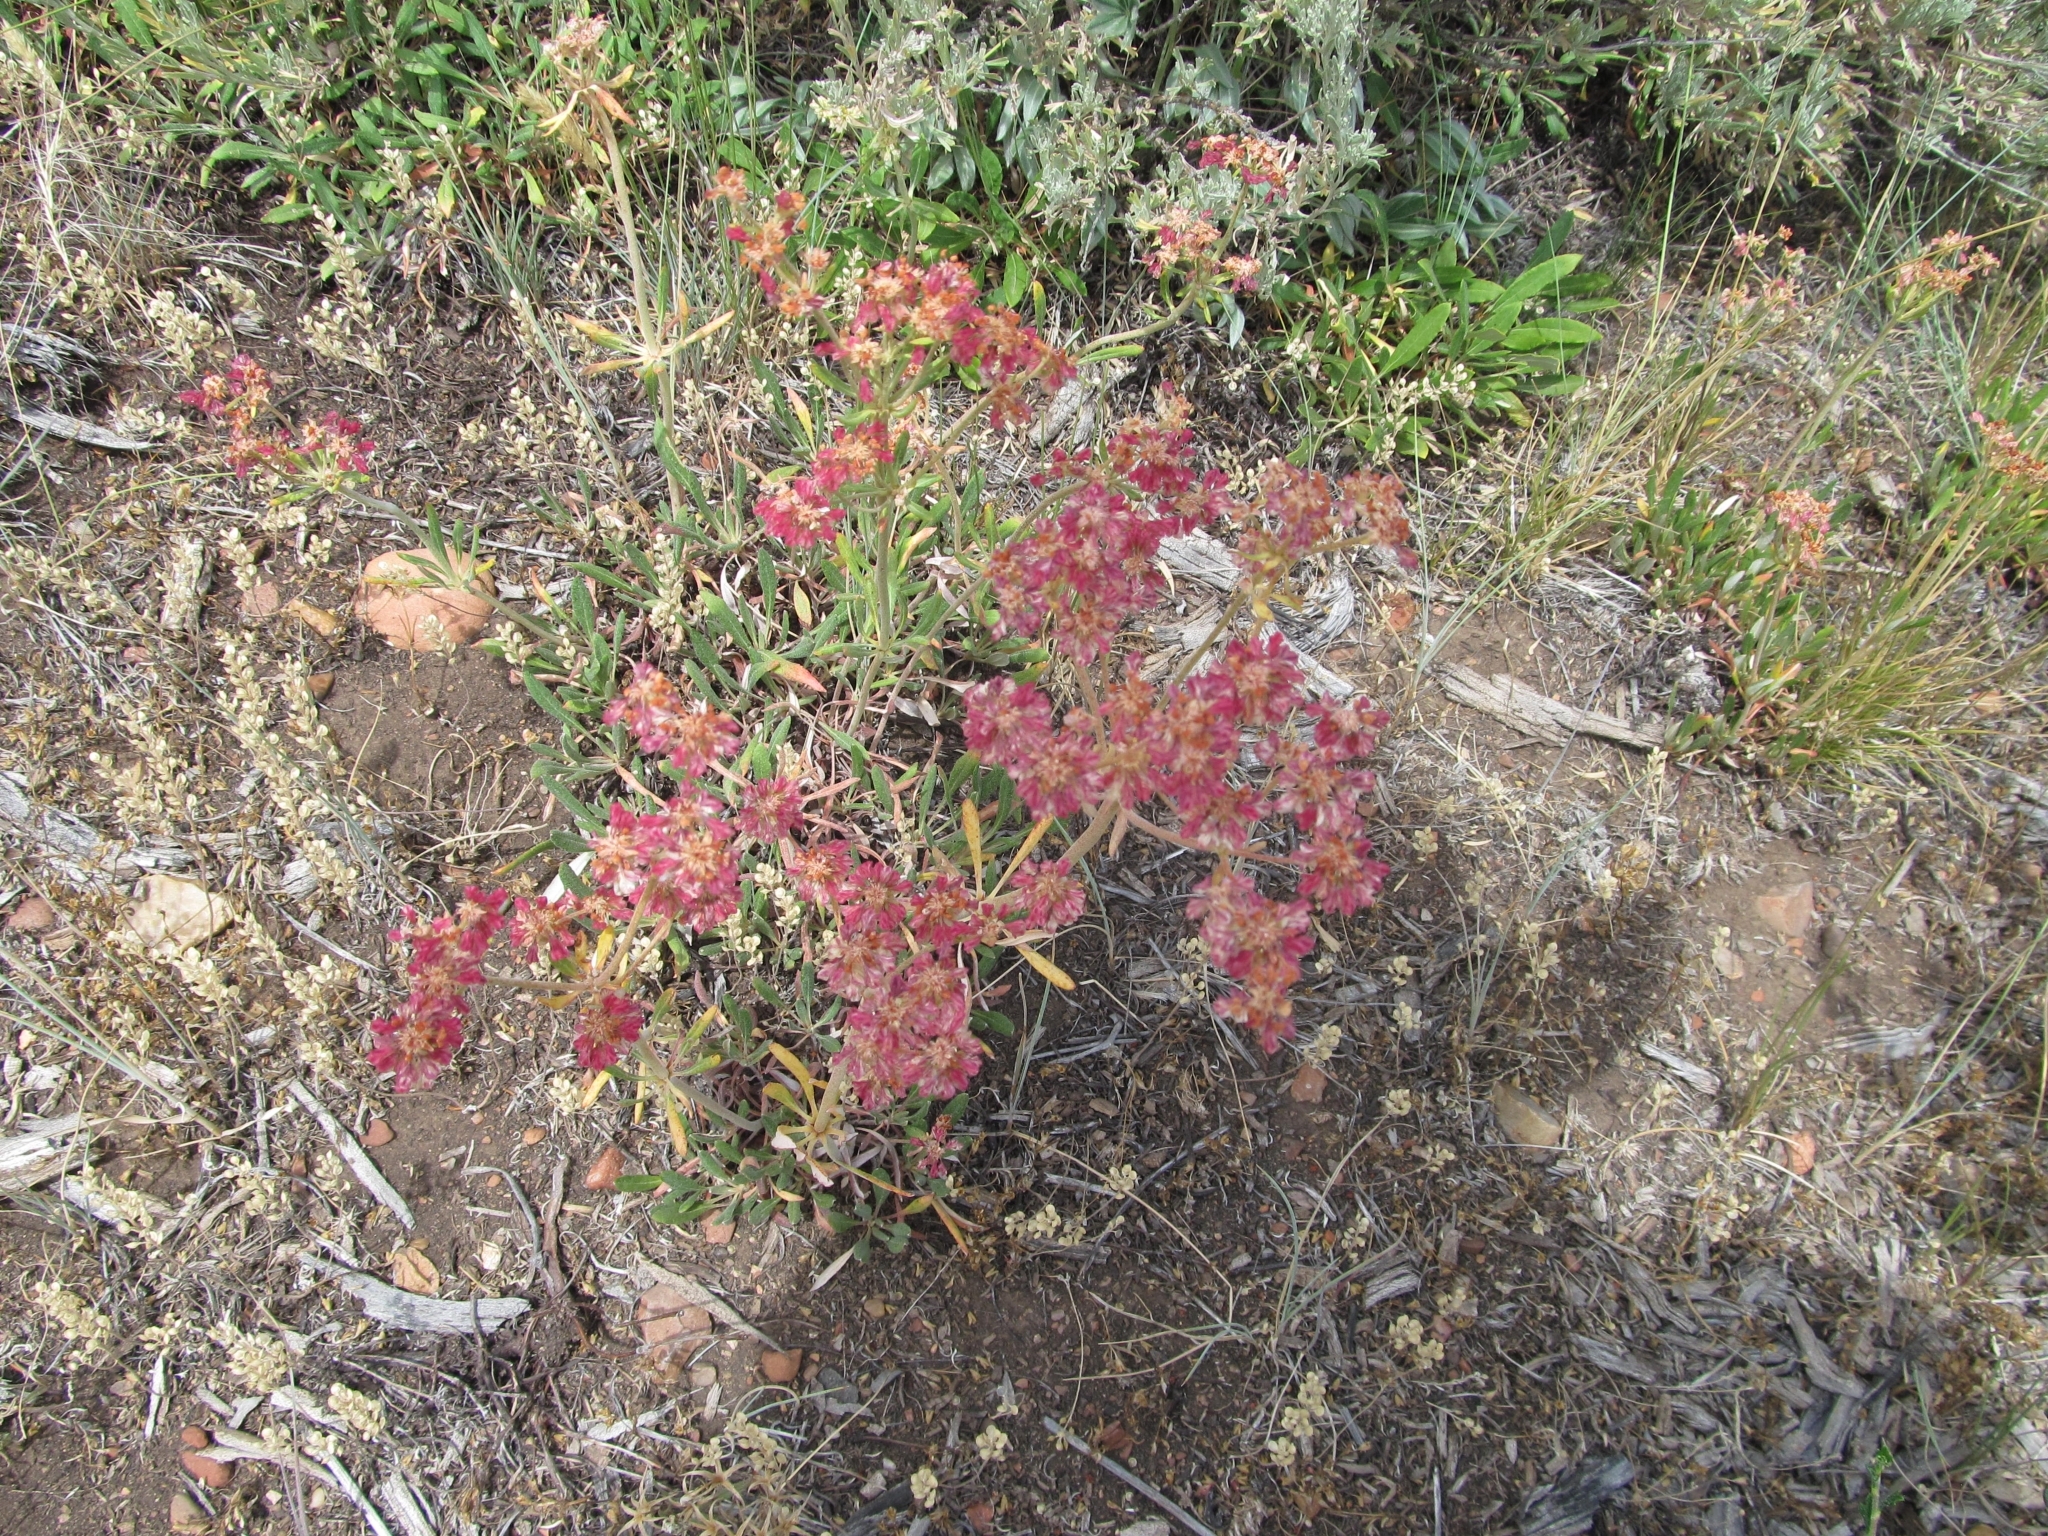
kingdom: Plantae
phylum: Tracheophyta
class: Magnoliopsida
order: Caryophyllales
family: Polygonaceae
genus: Eriogonum
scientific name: Eriogonum heracleoides
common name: Wyeth's buckwheat
